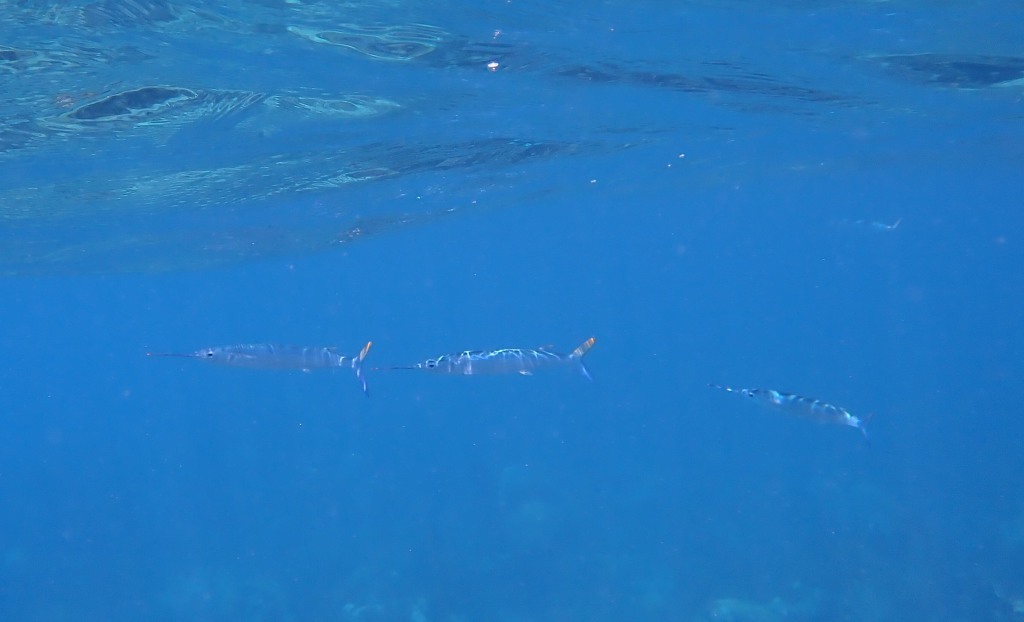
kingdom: Animalia
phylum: Chordata
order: Beloniformes
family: Hemiramphidae
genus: Hemiramphus
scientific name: Hemiramphus bermudensis
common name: Bermuda halfbeak
